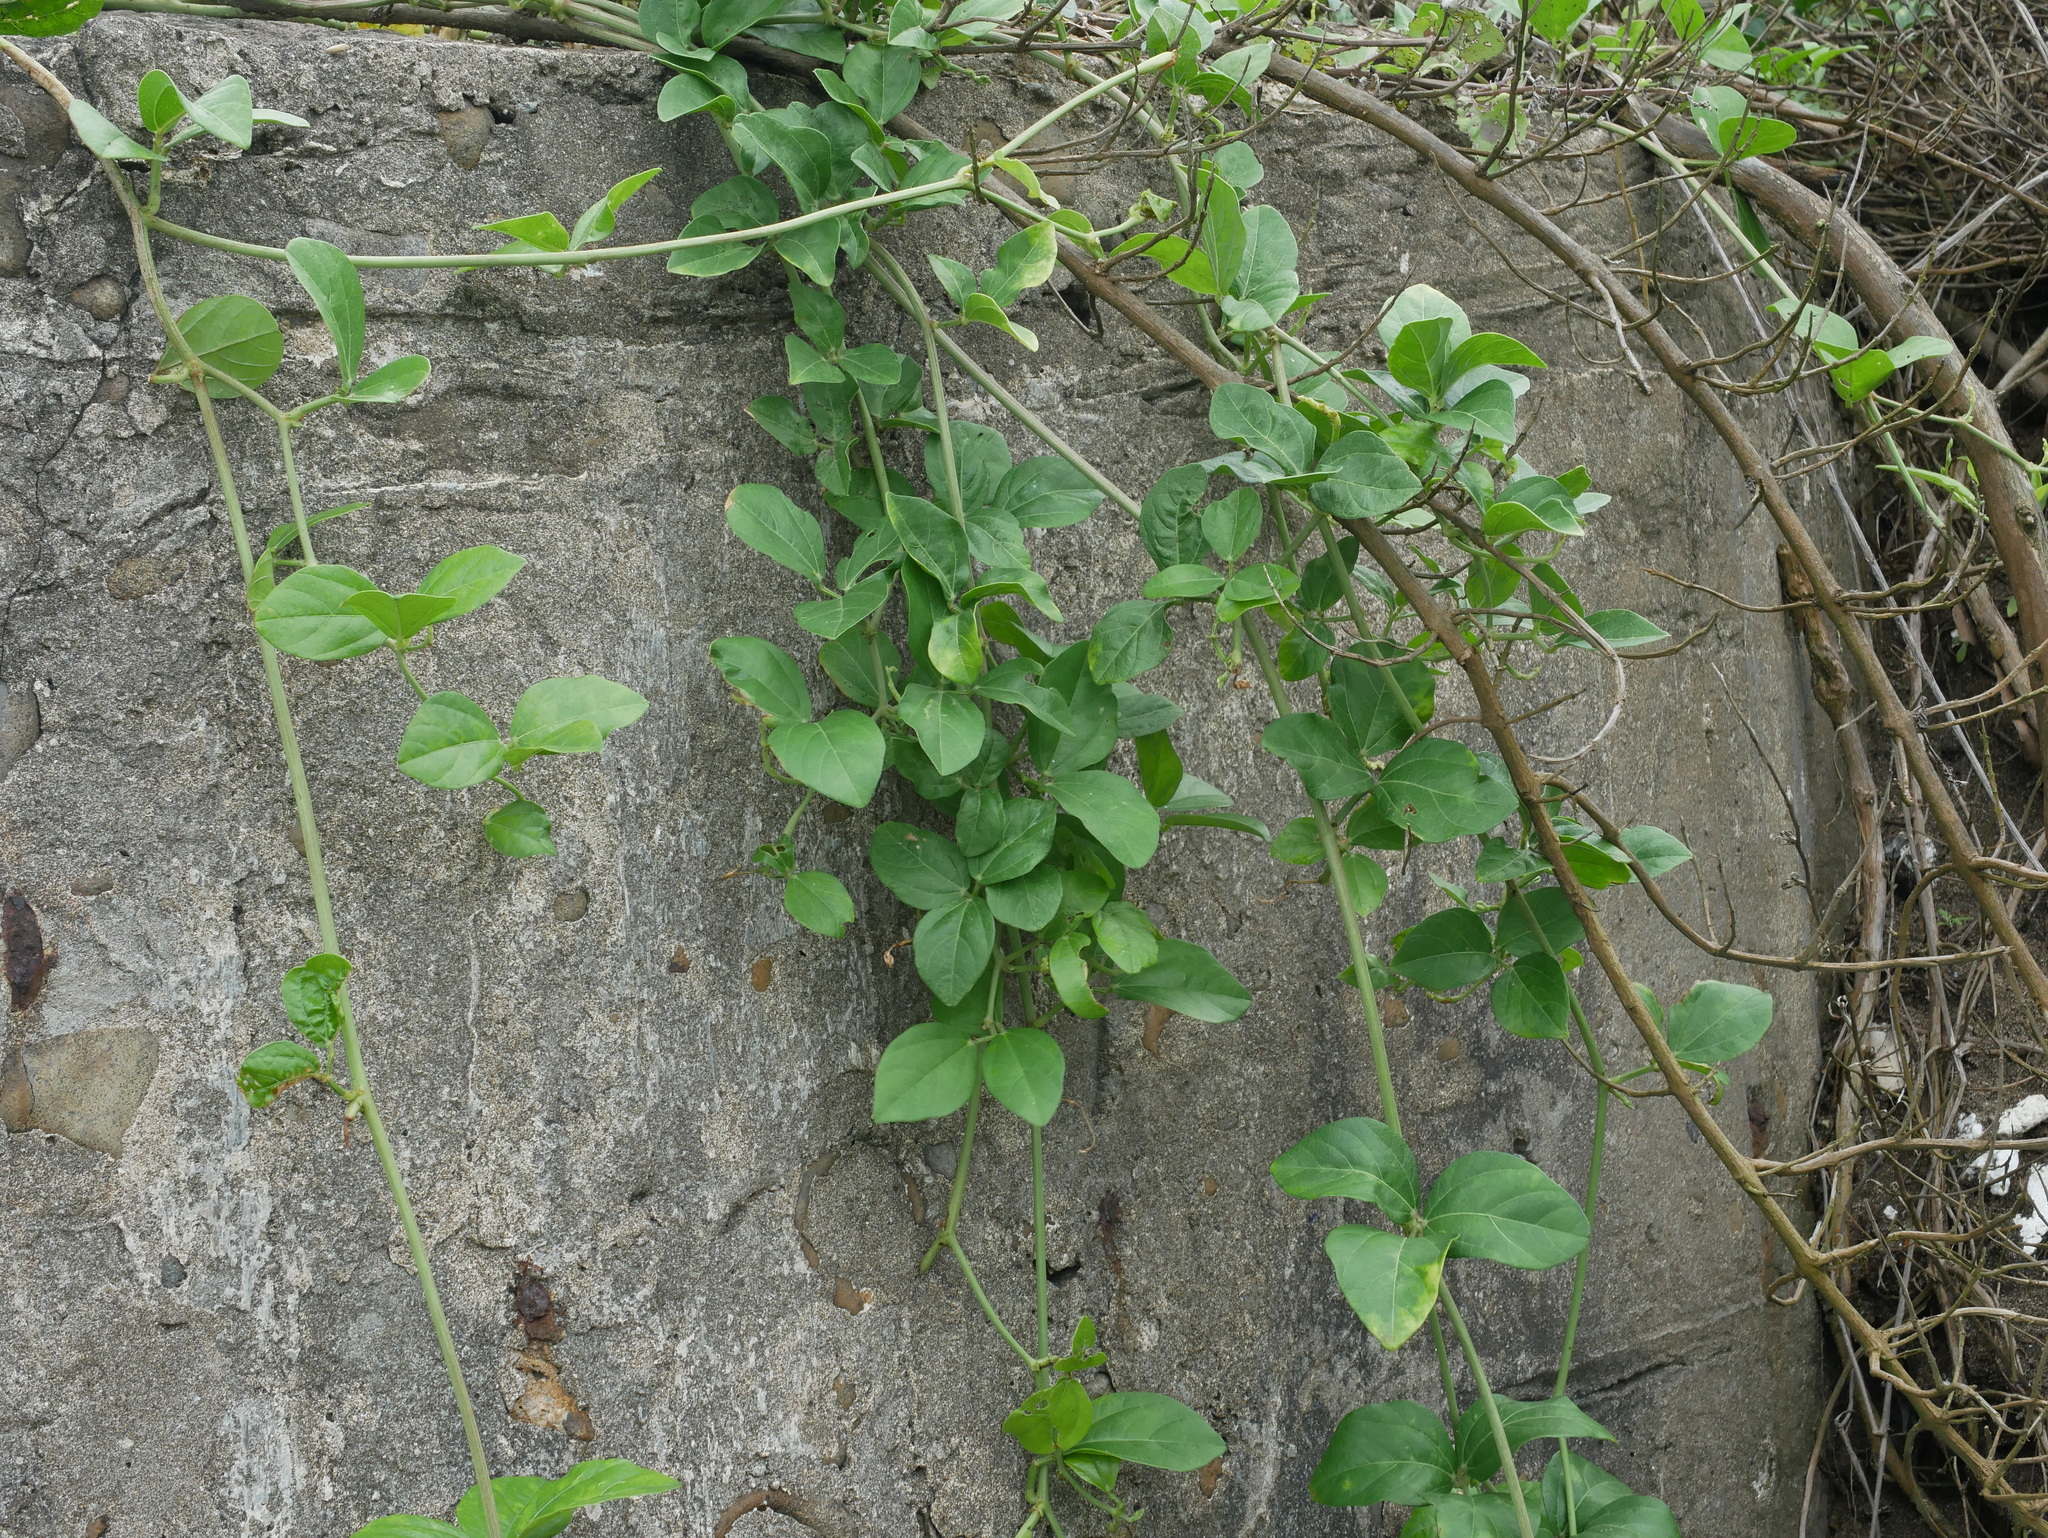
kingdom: Plantae
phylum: Tracheophyta
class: Magnoliopsida
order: Fabales
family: Fabaceae
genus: Vigna
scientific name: Vigna marina
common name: Dune-bean
